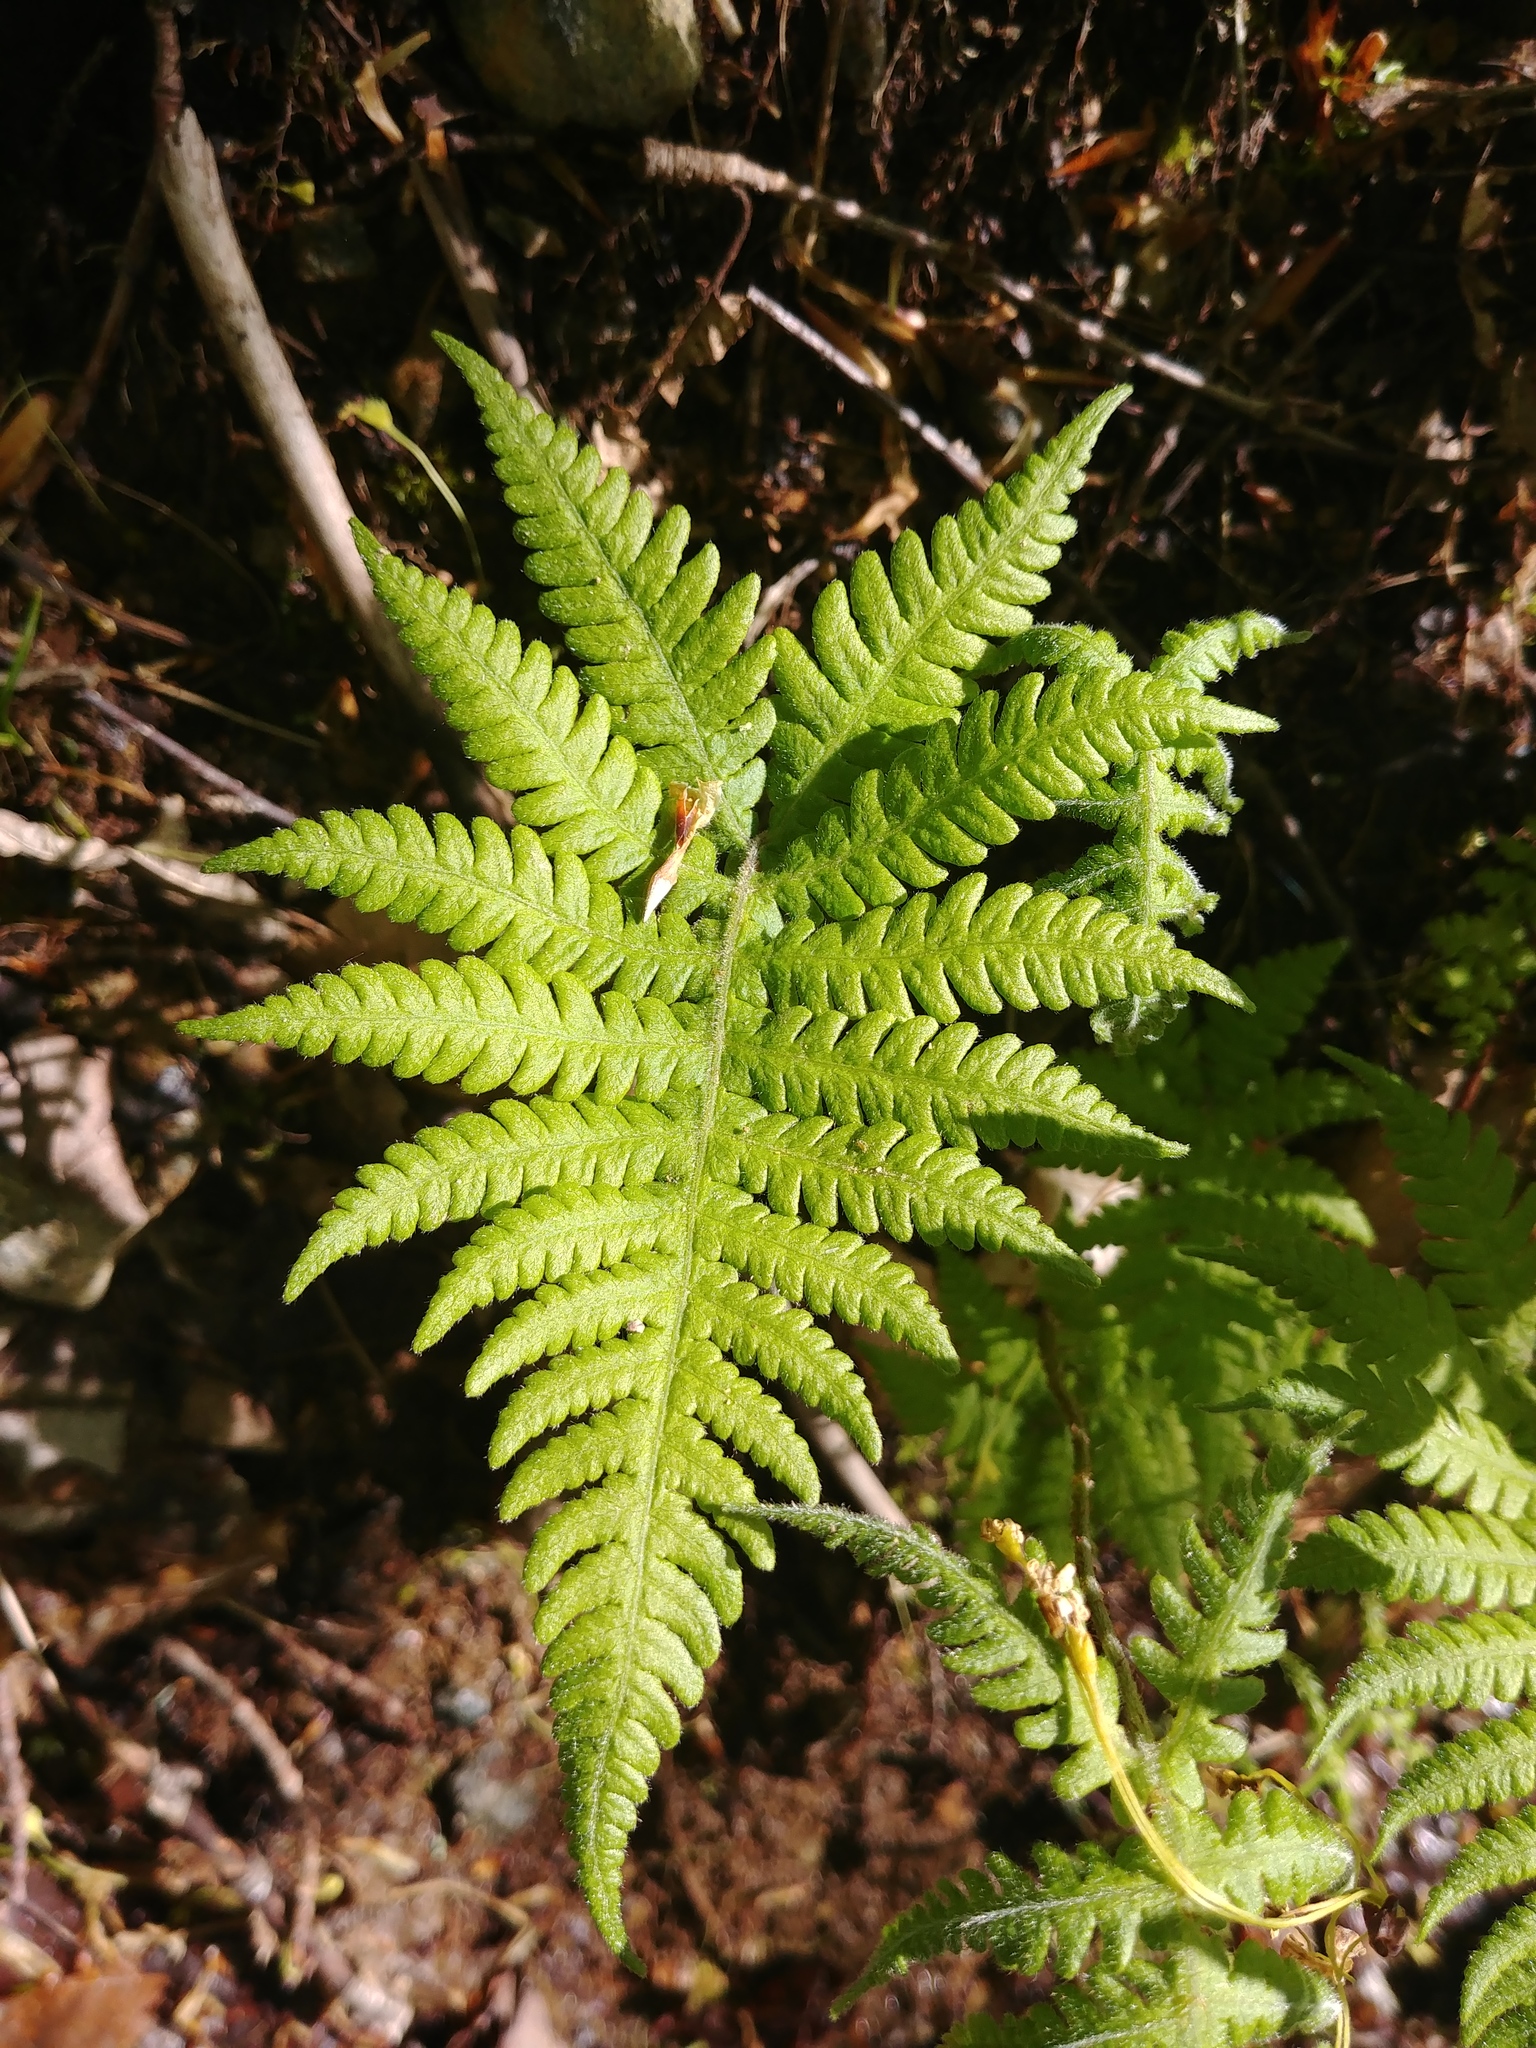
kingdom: Plantae
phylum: Tracheophyta
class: Polypodiopsida
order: Polypodiales
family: Thelypteridaceae
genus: Phegopteris
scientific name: Phegopteris connectilis
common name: Beech fern
